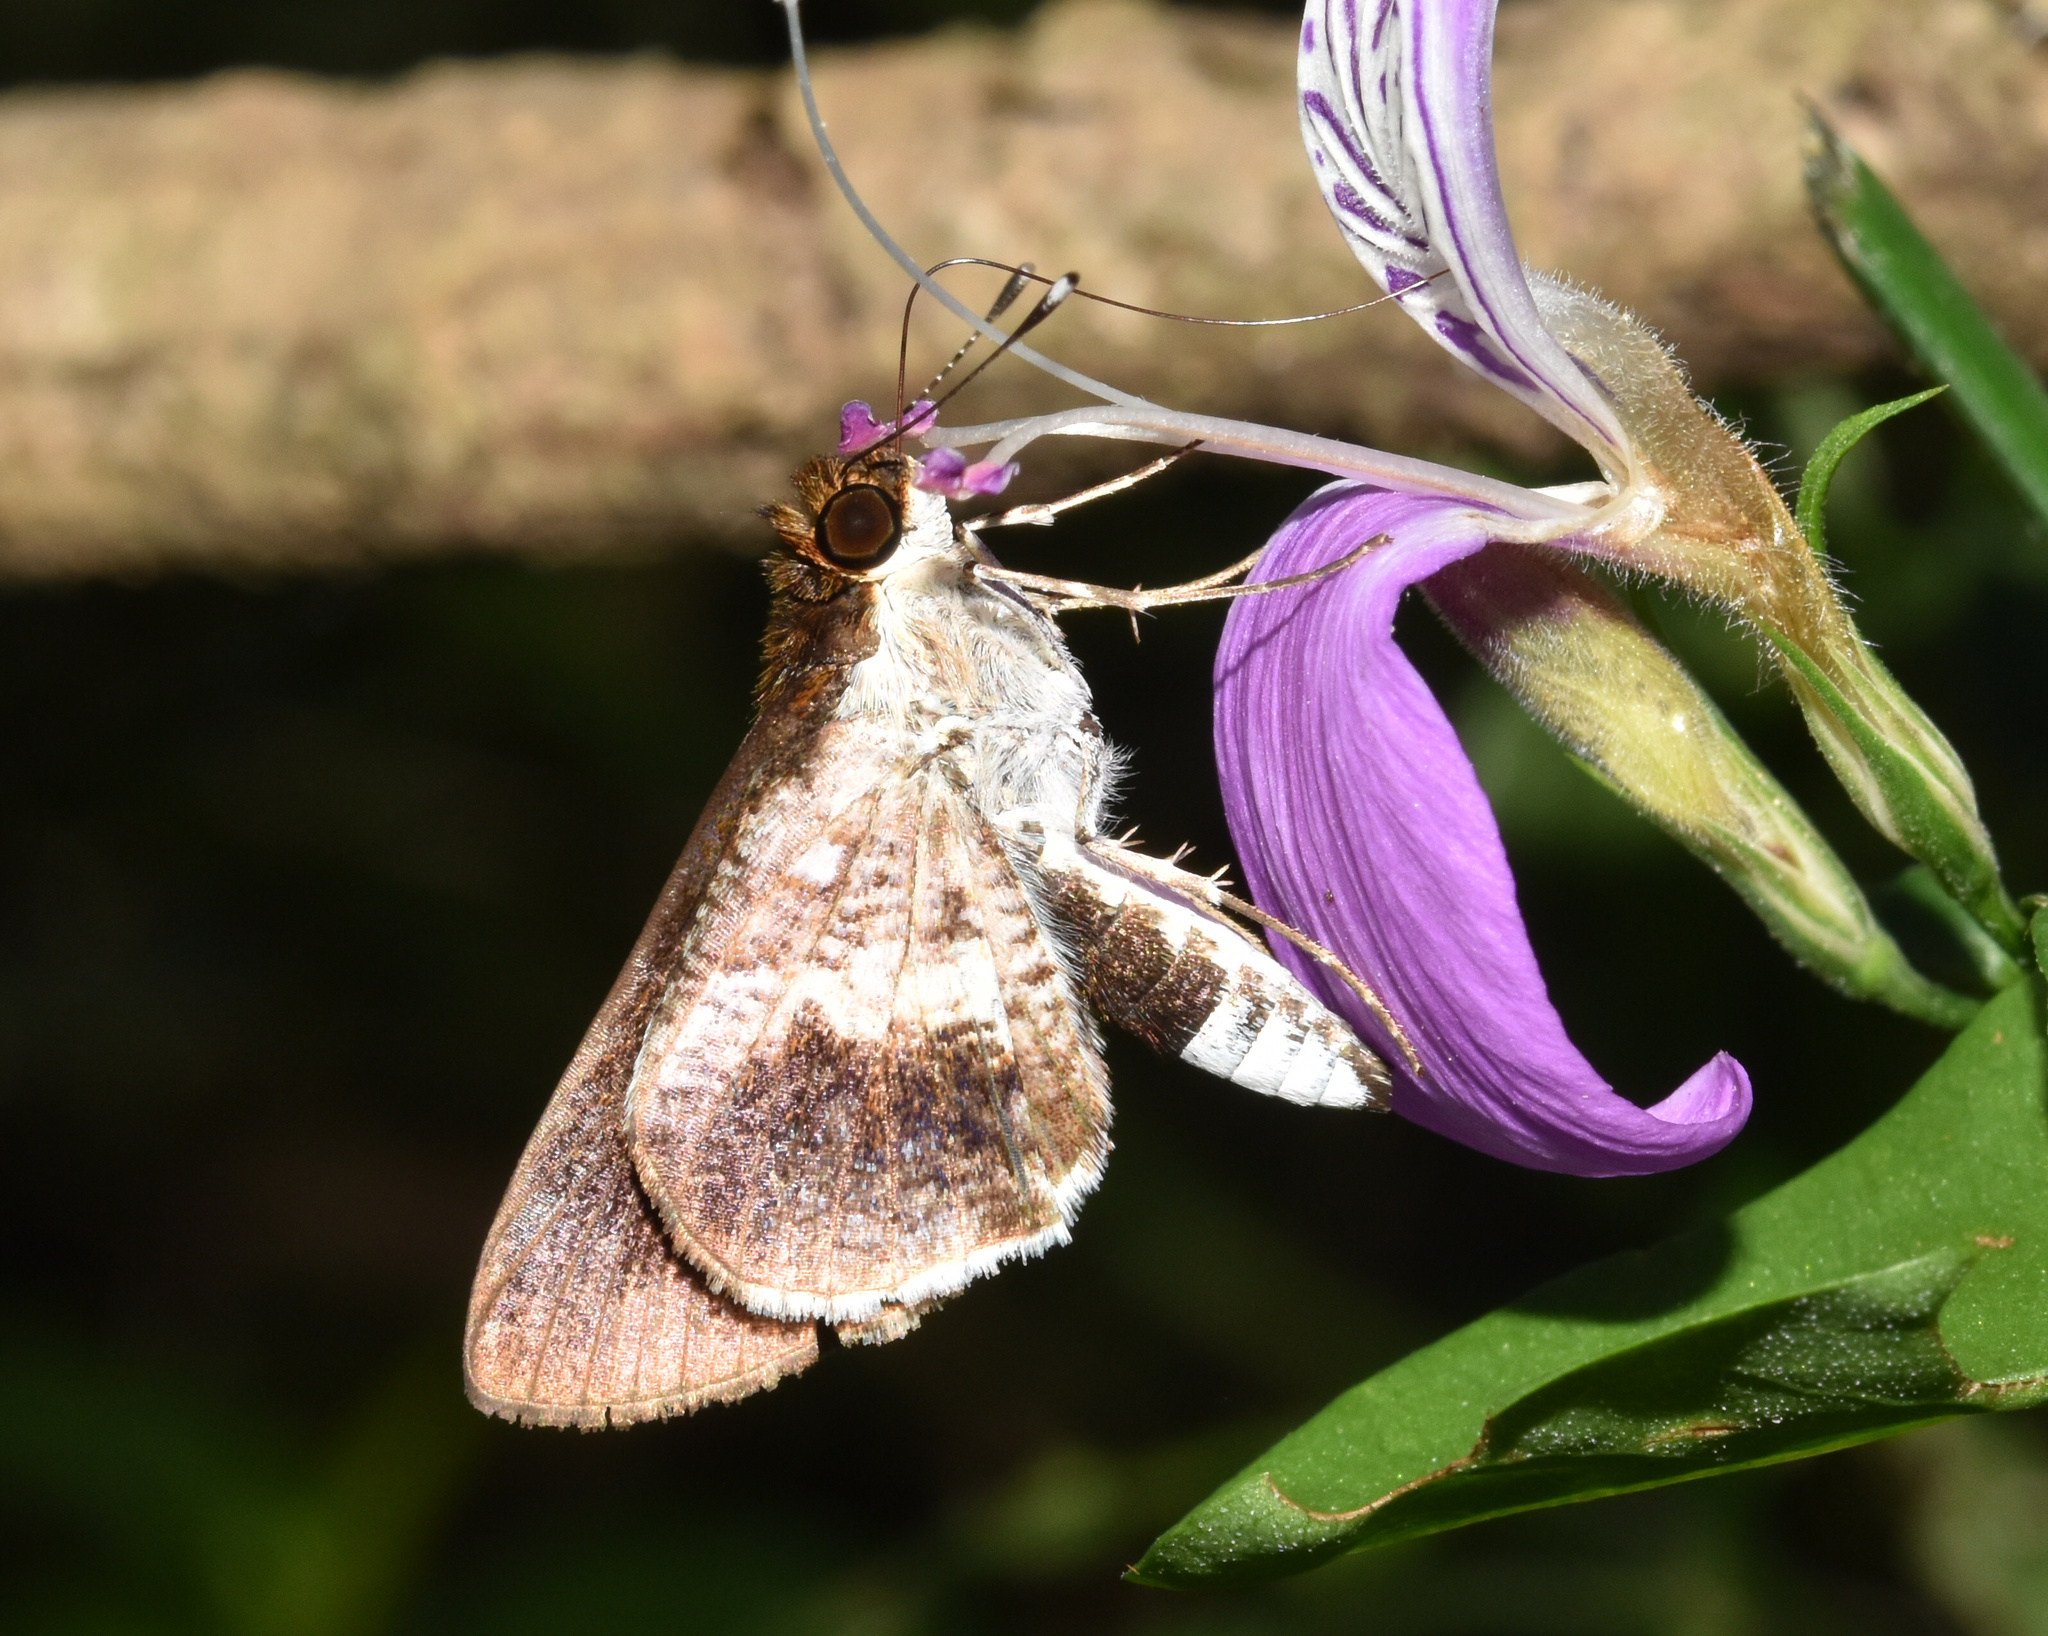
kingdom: Animalia
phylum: Arthropoda
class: Insecta
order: Lepidoptera
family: Hesperiidae
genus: Acleros
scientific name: Acleros mackenii
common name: Shade dart
